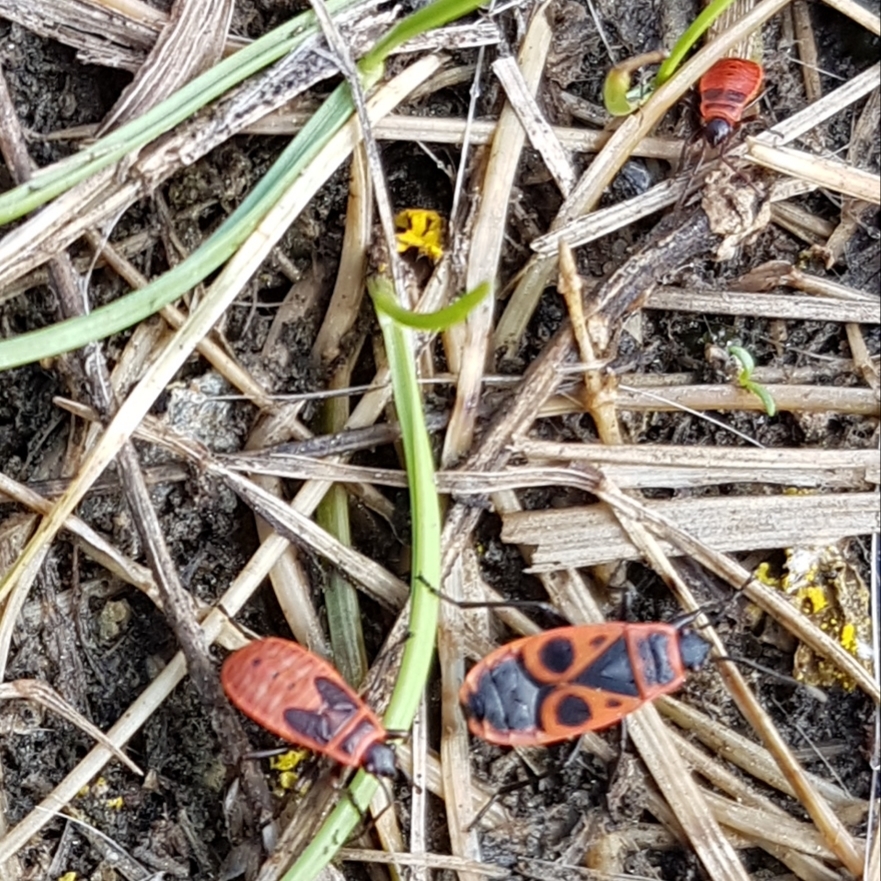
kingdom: Animalia
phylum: Arthropoda
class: Insecta
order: Hemiptera
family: Pyrrhocoridae
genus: Pyrrhocoris
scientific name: Pyrrhocoris apterus
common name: Firebug
